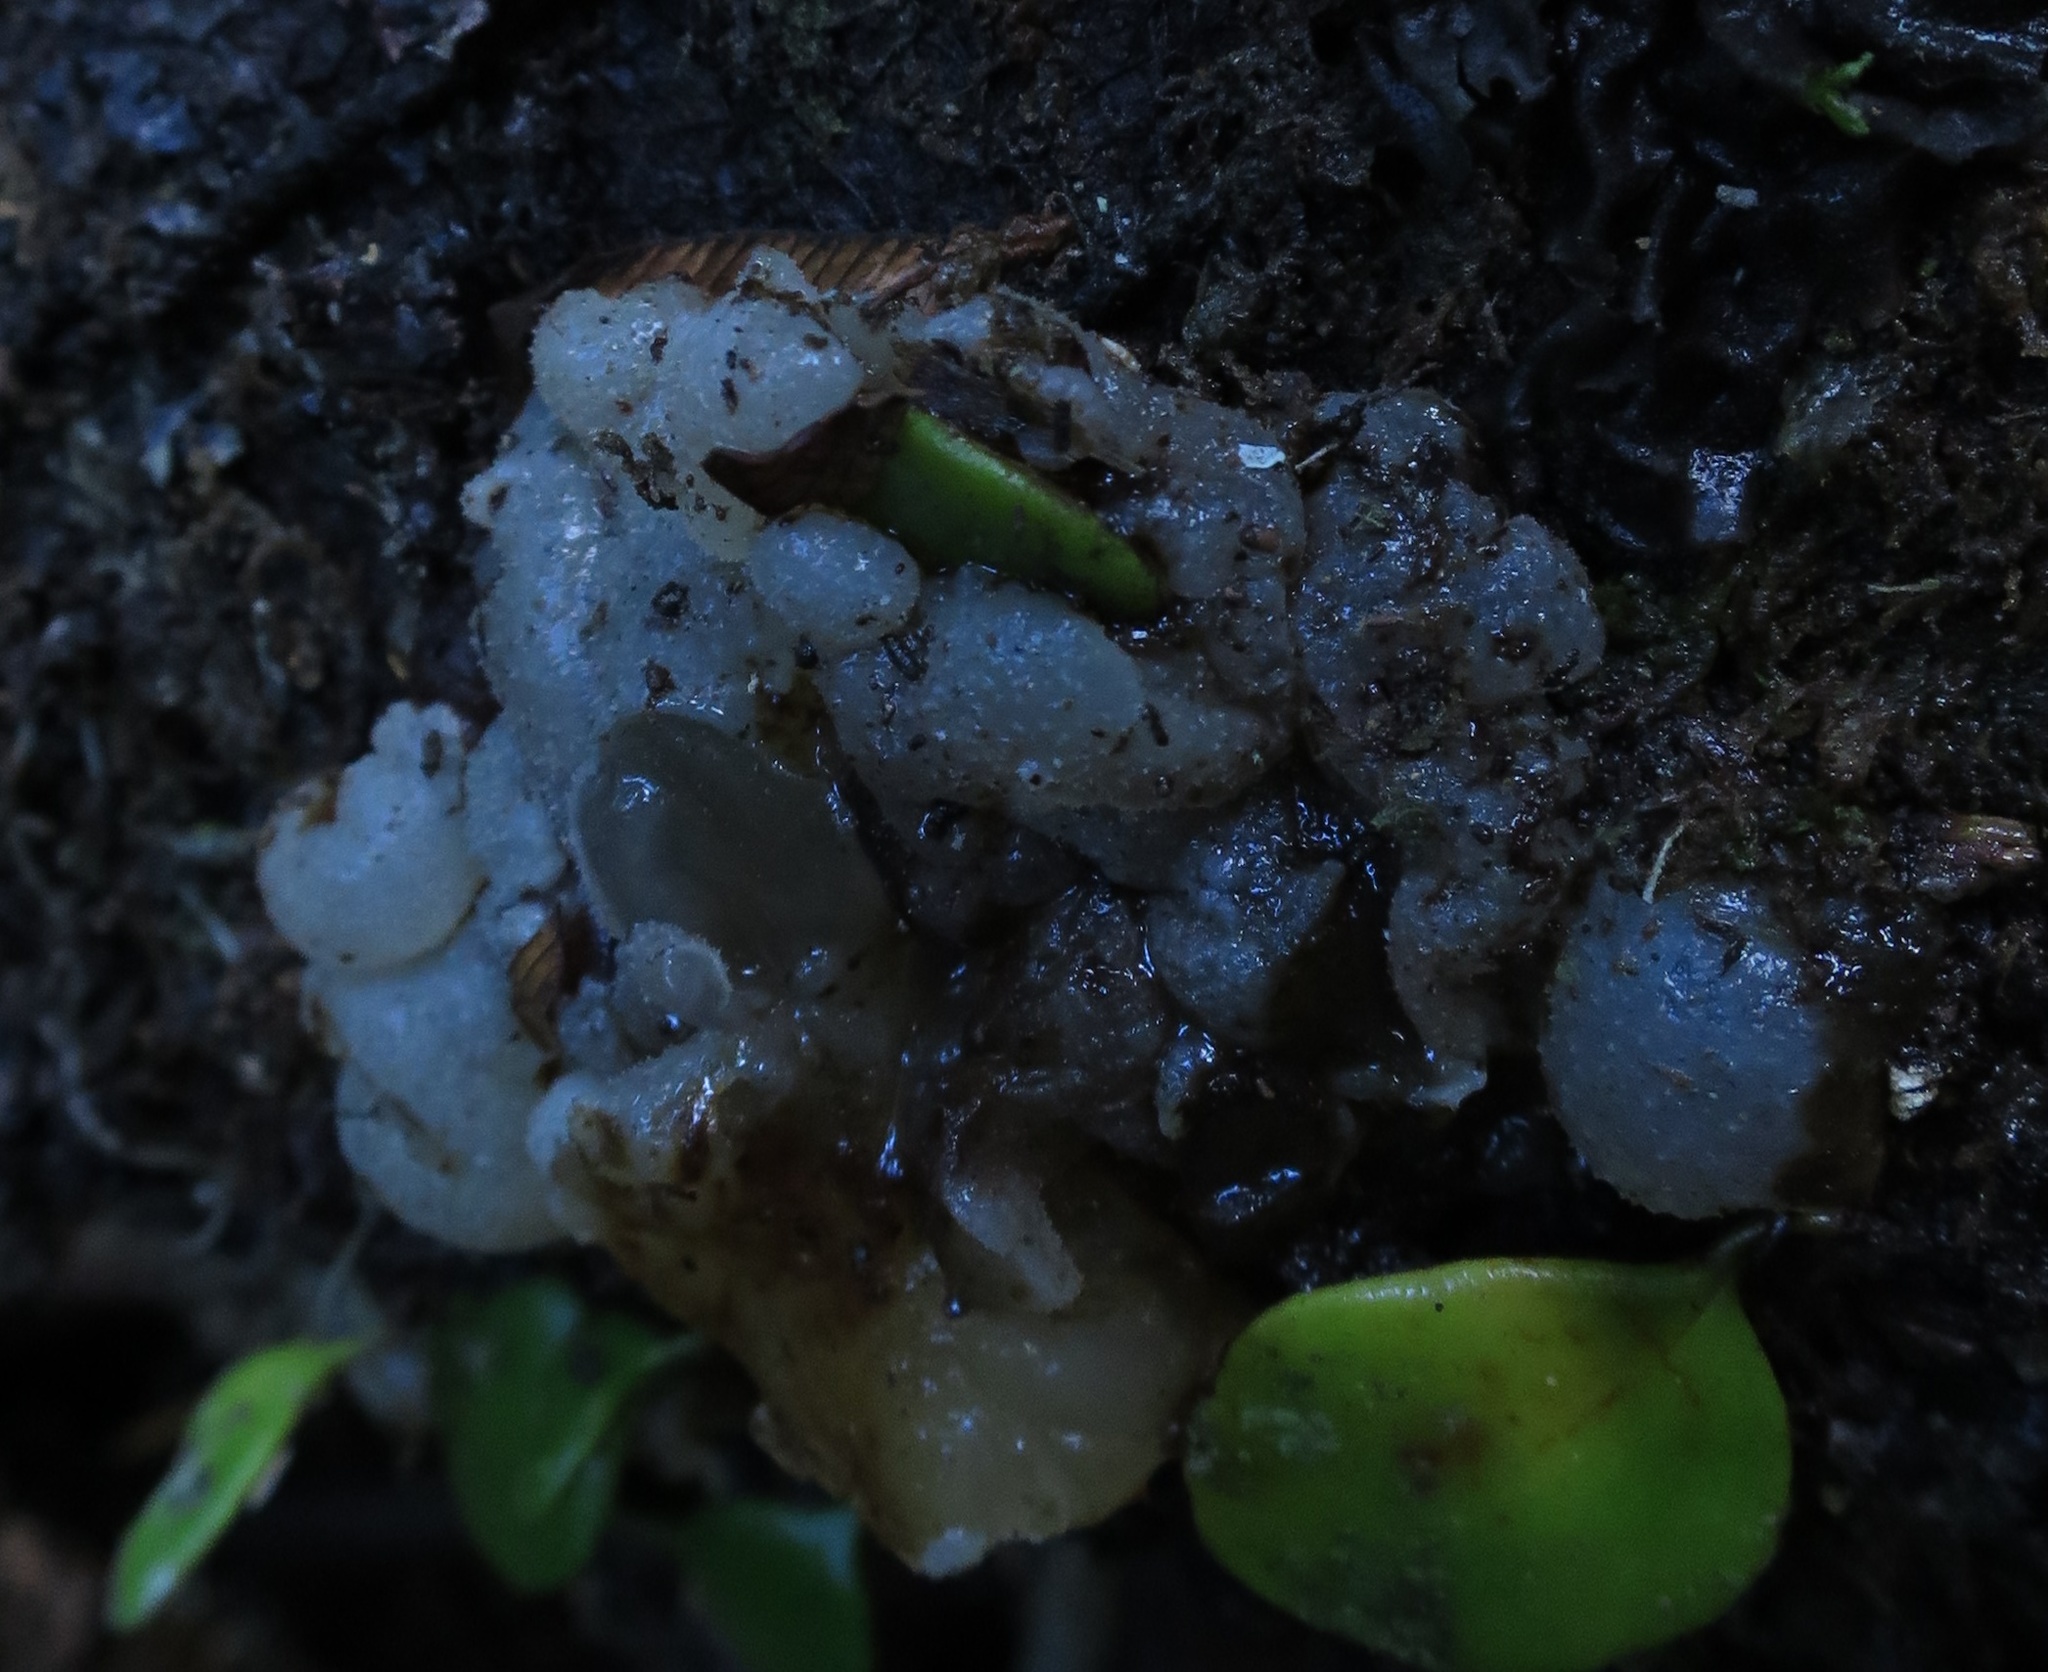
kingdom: Fungi
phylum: Basidiomycota
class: Agaricomycetes
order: Auriculariales
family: Auriculariaceae
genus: Tremellochaete
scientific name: Tremellochaete
